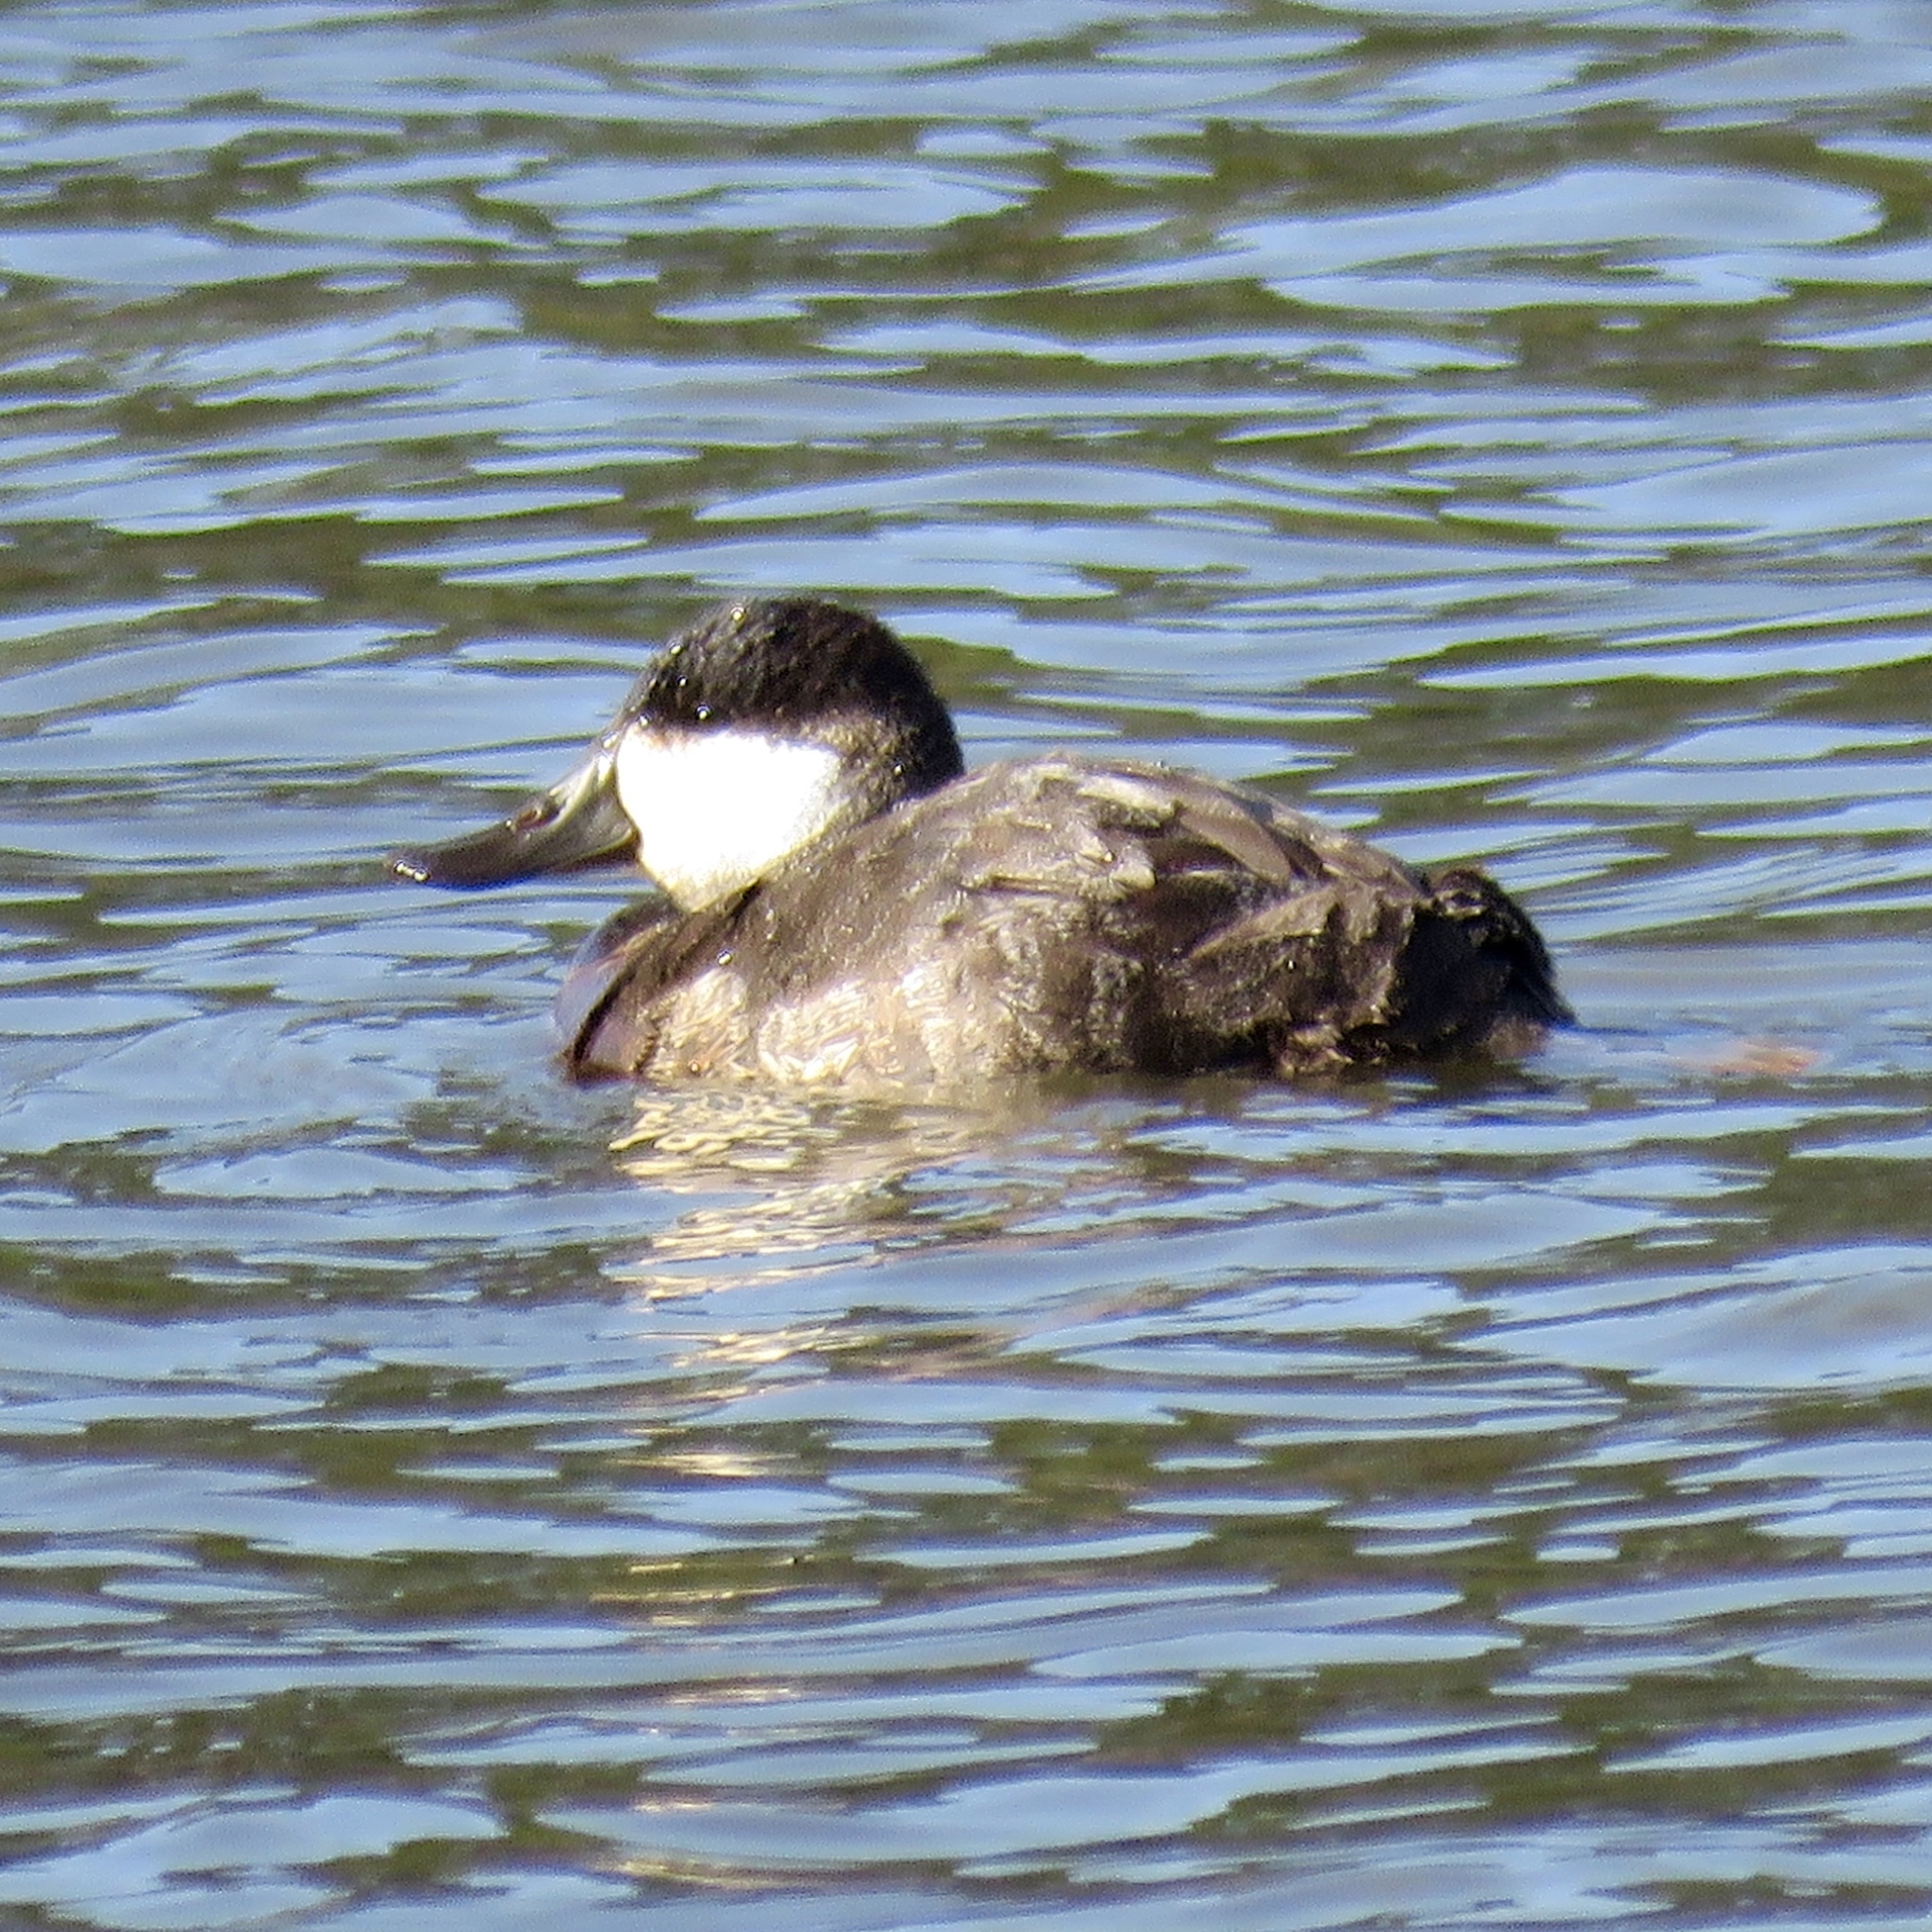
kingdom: Animalia
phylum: Chordata
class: Aves
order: Anseriformes
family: Anatidae
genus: Oxyura
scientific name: Oxyura jamaicensis
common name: Ruddy duck
